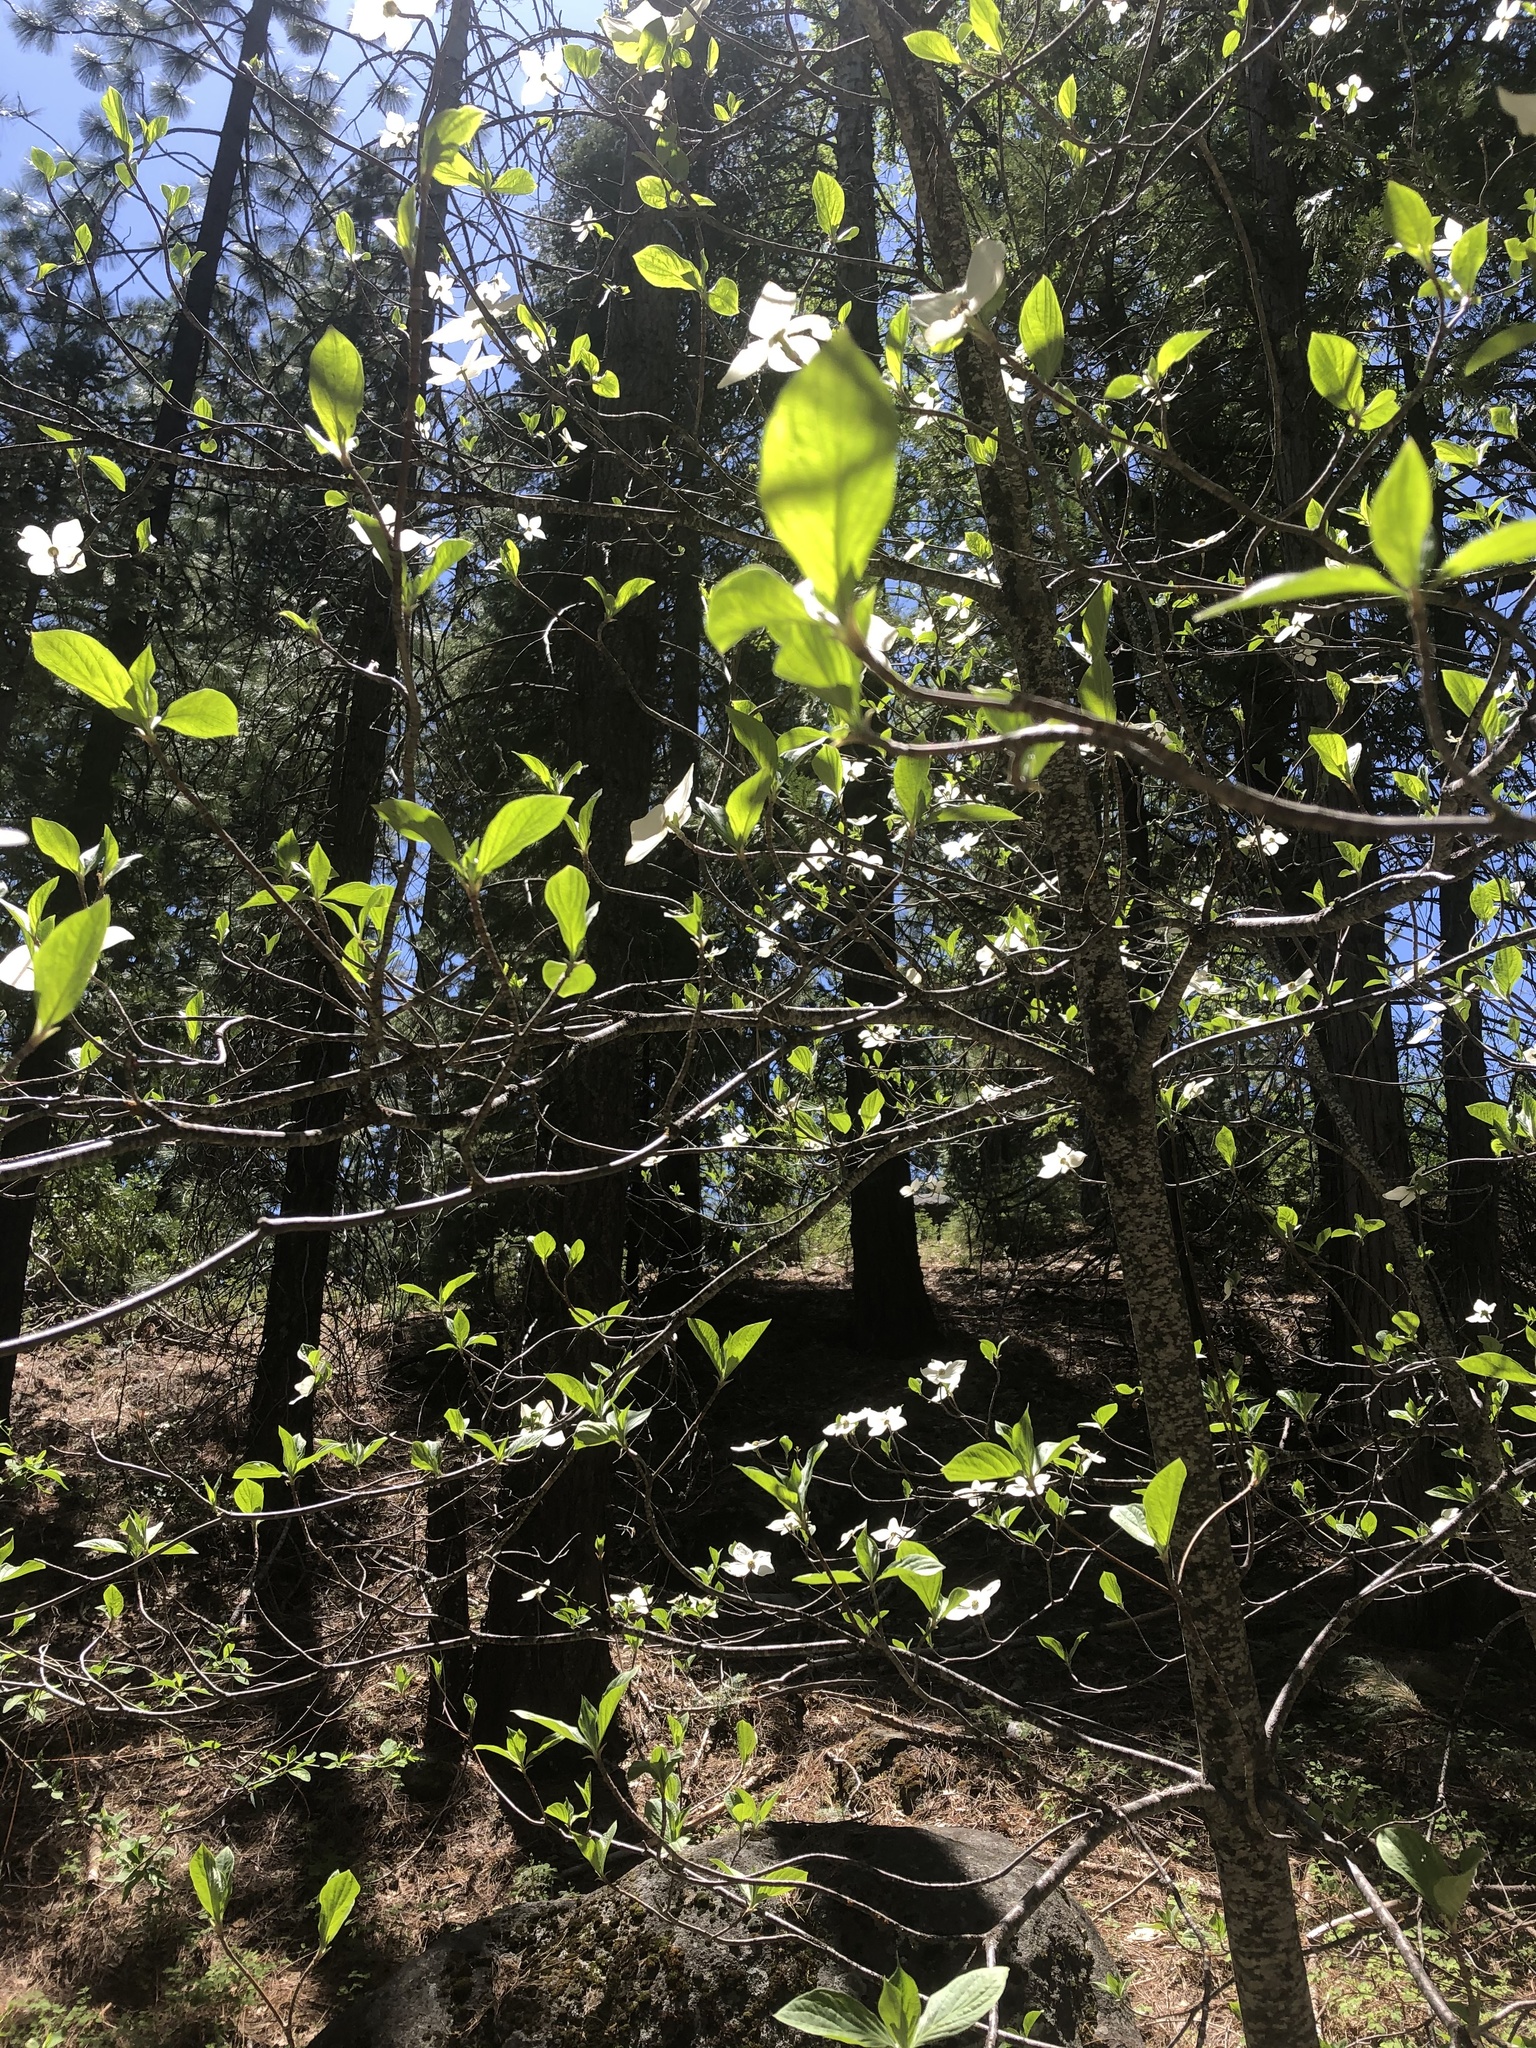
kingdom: Plantae
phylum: Tracheophyta
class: Magnoliopsida
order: Cornales
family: Cornaceae
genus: Cornus
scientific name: Cornus nuttallii
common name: Pacific dogwood
